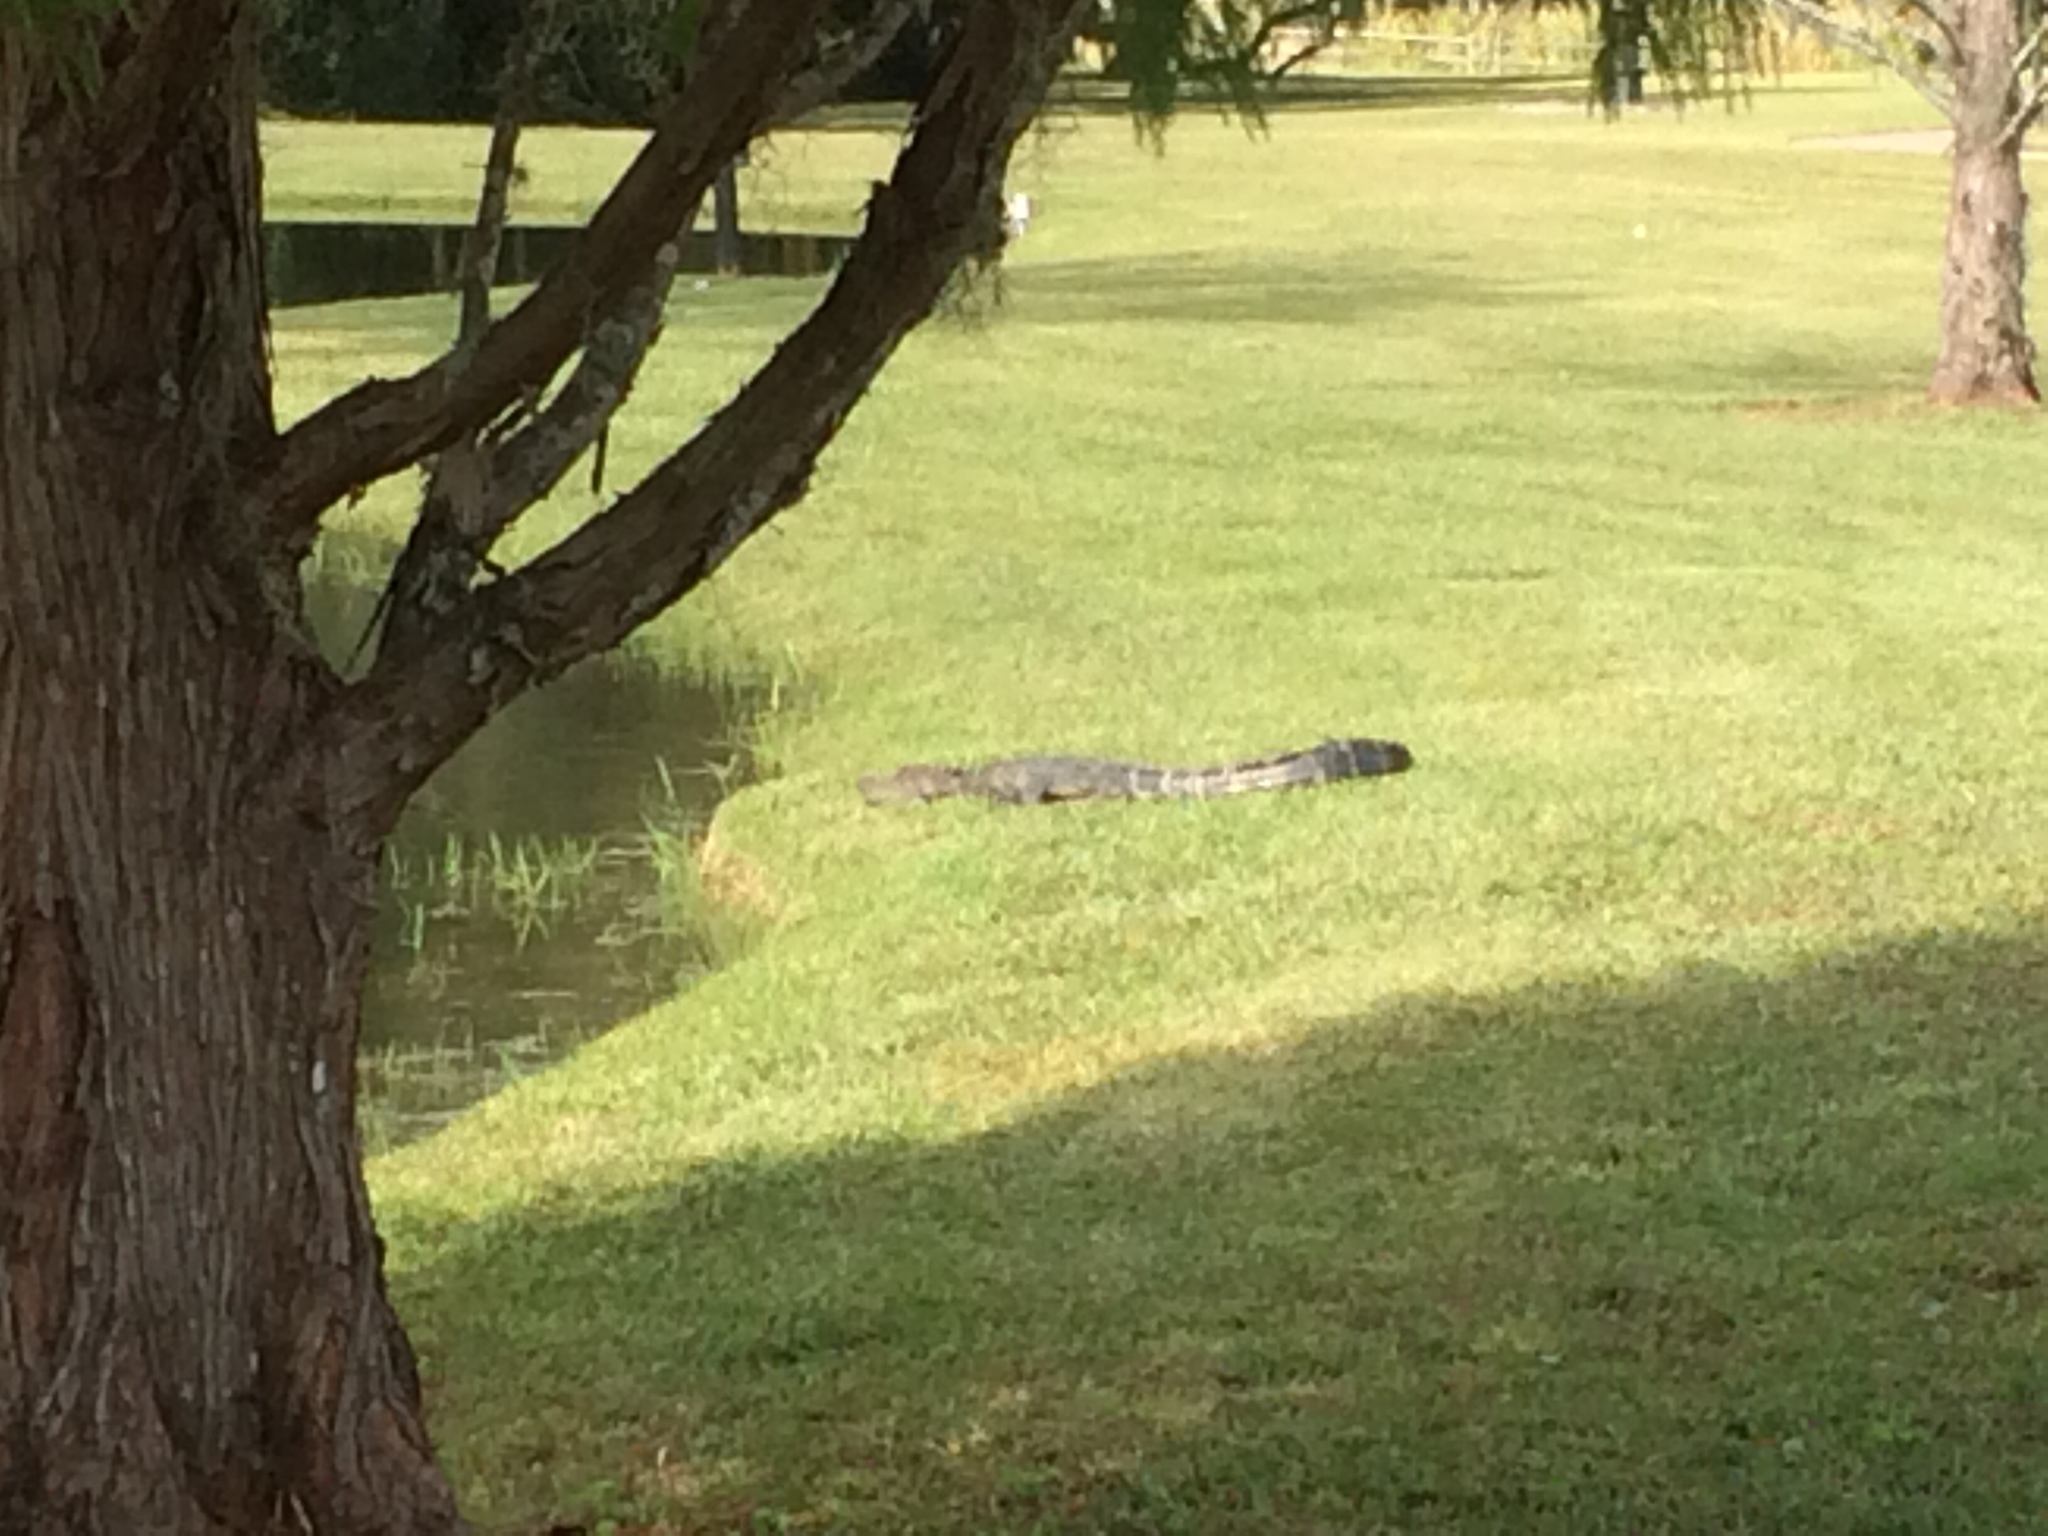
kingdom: Animalia
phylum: Chordata
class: Crocodylia
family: Alligatoridae
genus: Alligator
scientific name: Alligator mississippiensis
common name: American alligator
